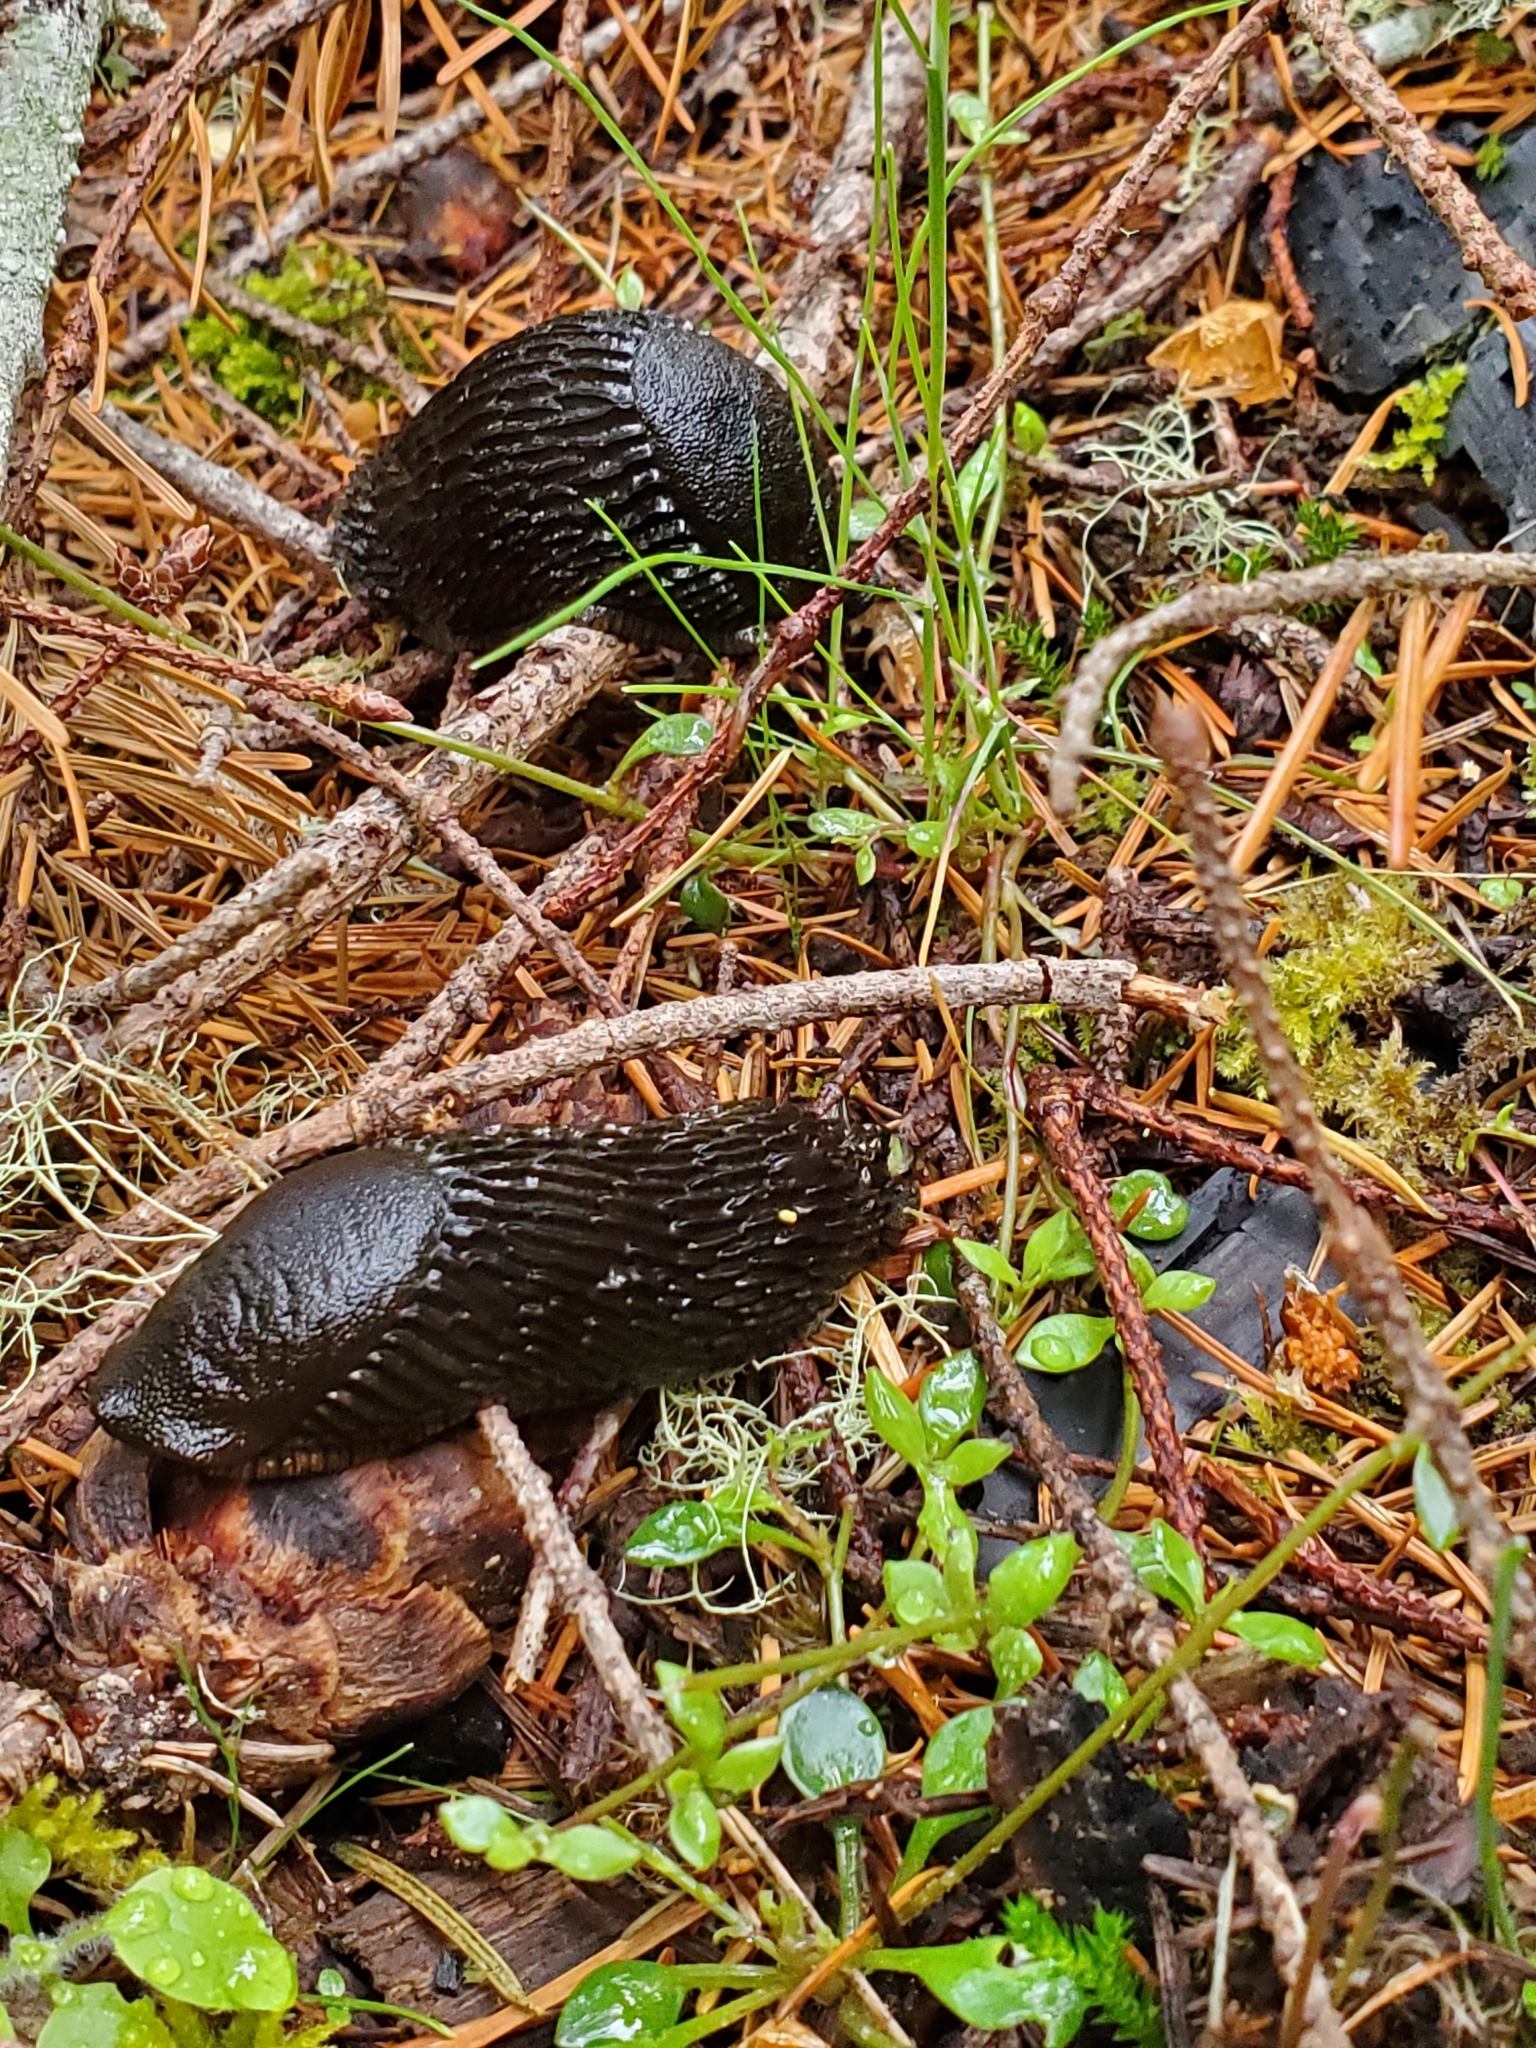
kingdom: Animalia
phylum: Mollusca
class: Gastropoda
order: Stylommatophora
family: Arionidae
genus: Arion
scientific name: Arion rufus
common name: Chocolate arion
